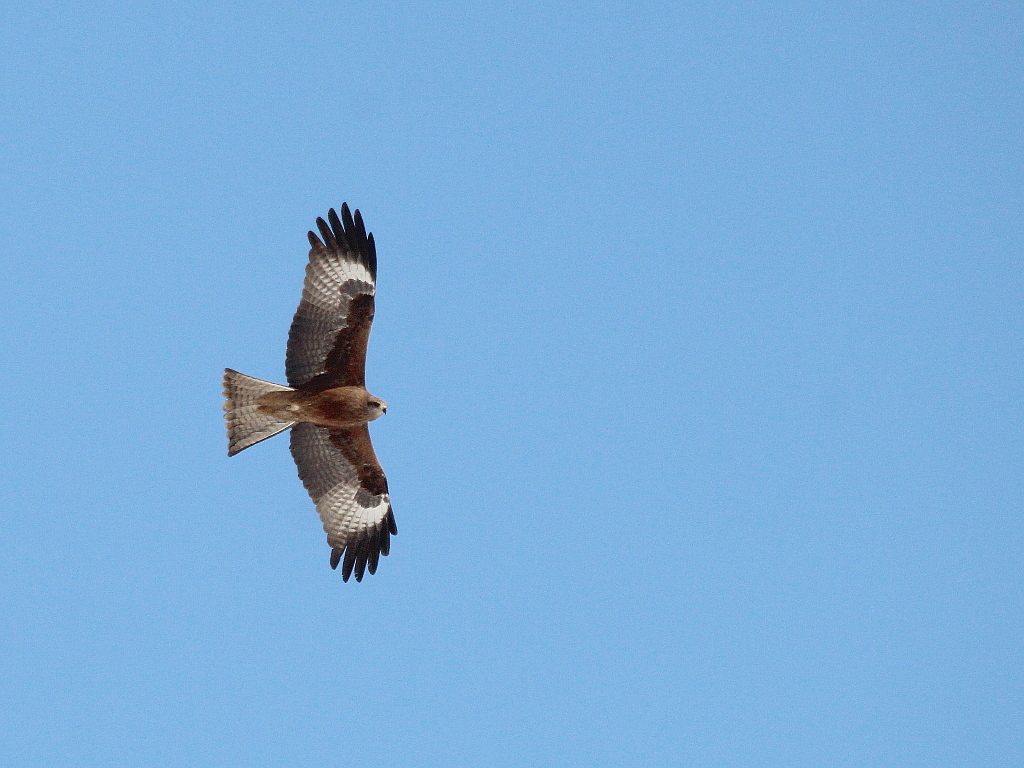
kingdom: Animalia
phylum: Chordata
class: Aves
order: Accipitriformes
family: Accipitridae
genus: Milvus
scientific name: Milvus migrans
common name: Black kite
